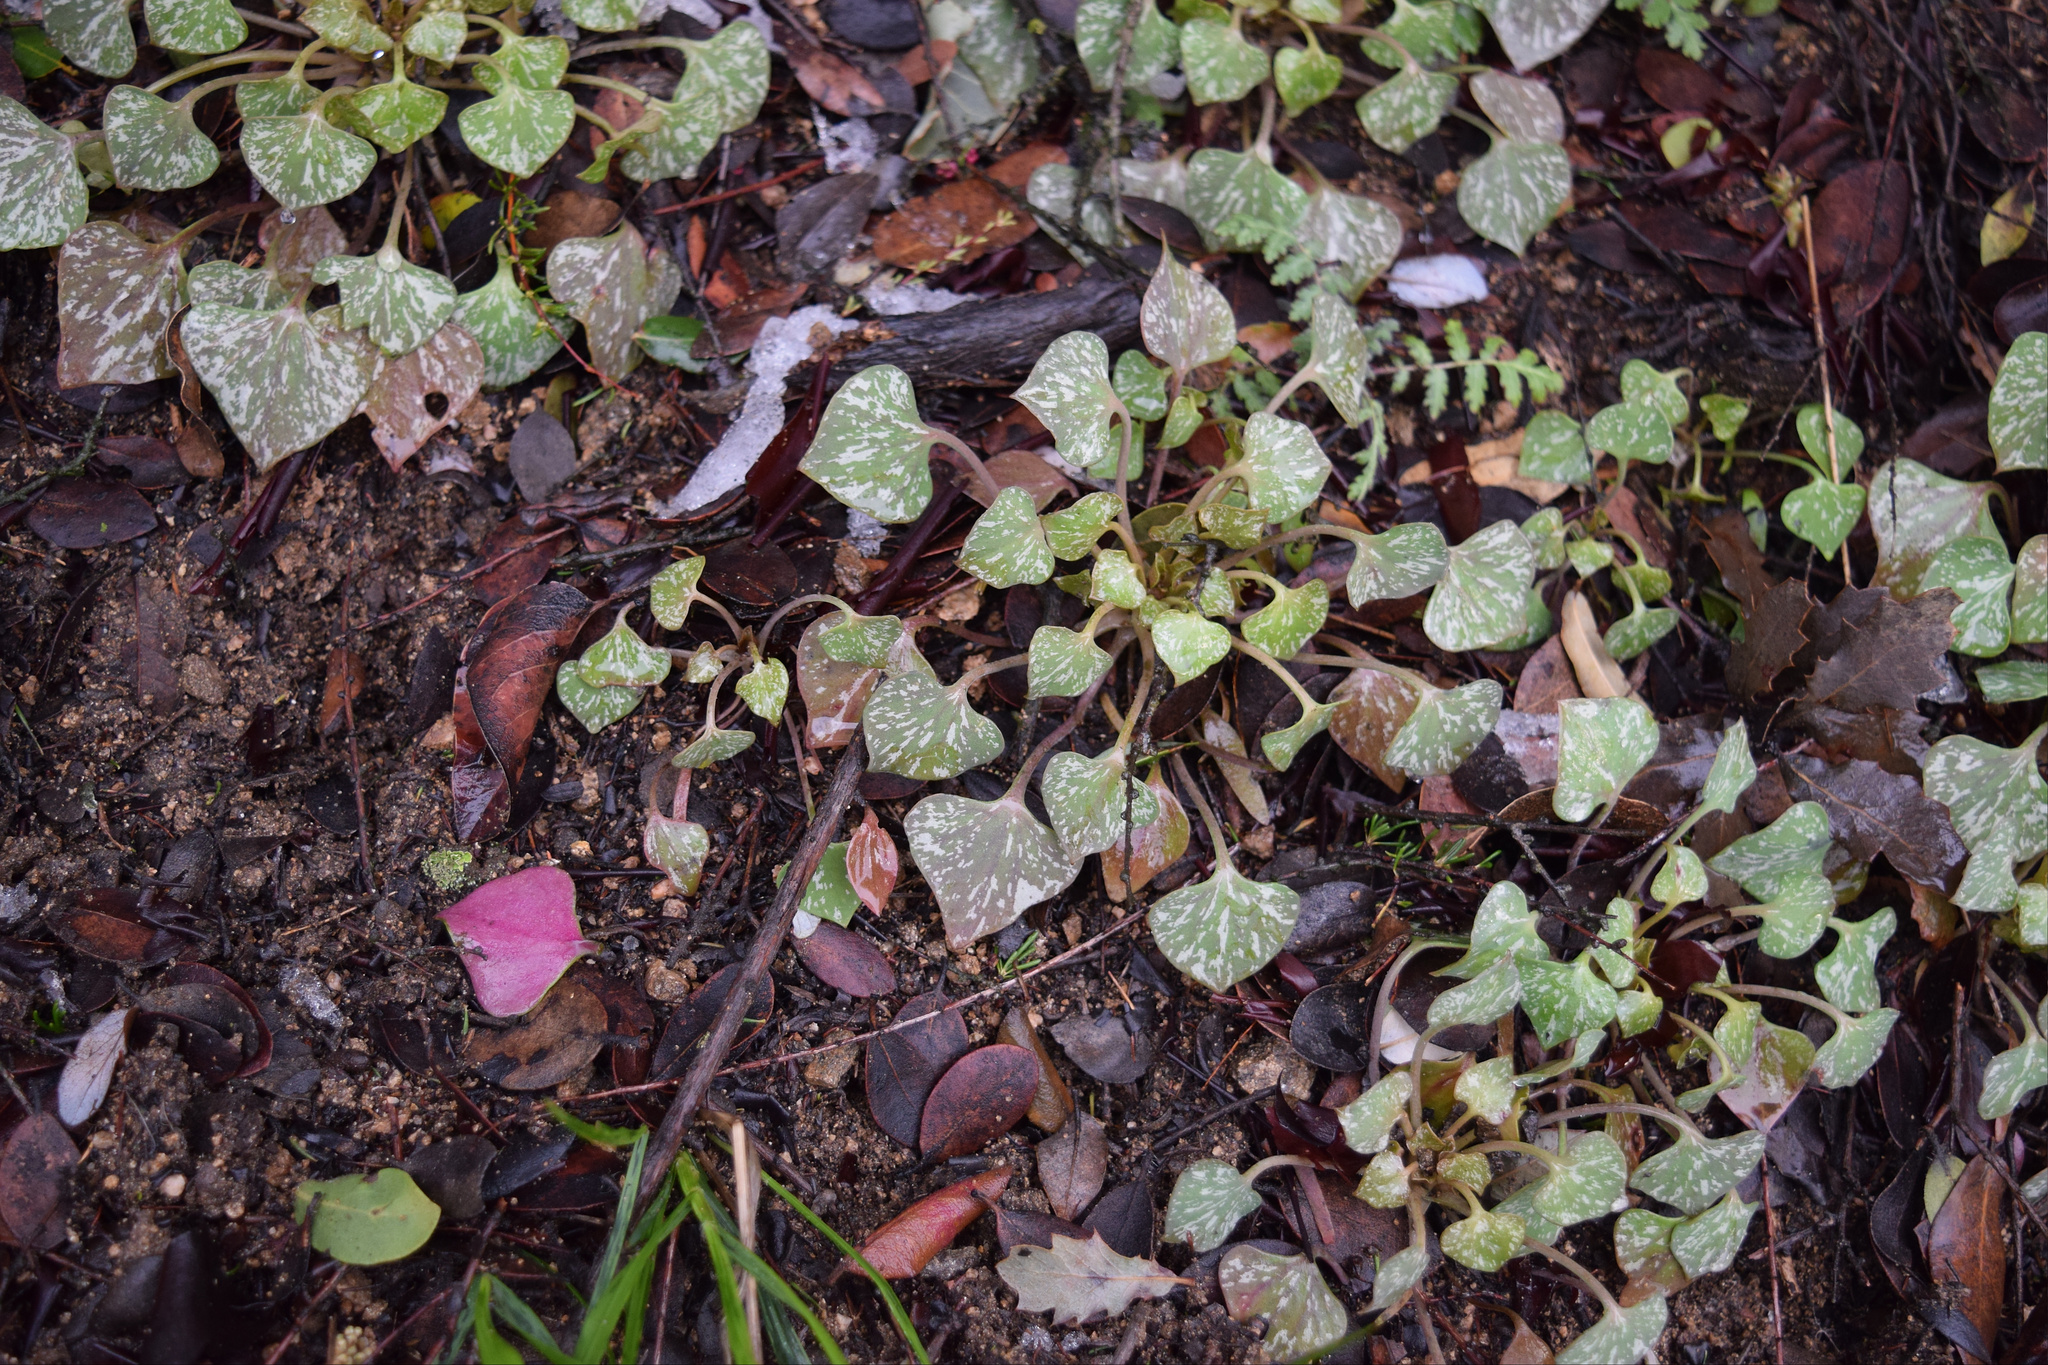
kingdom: Plantae
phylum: Tracheophyta
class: Magnoliopsida
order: Caryophyllales
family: Montiaceae
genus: Claytonia
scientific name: Claytonia perfoliata
